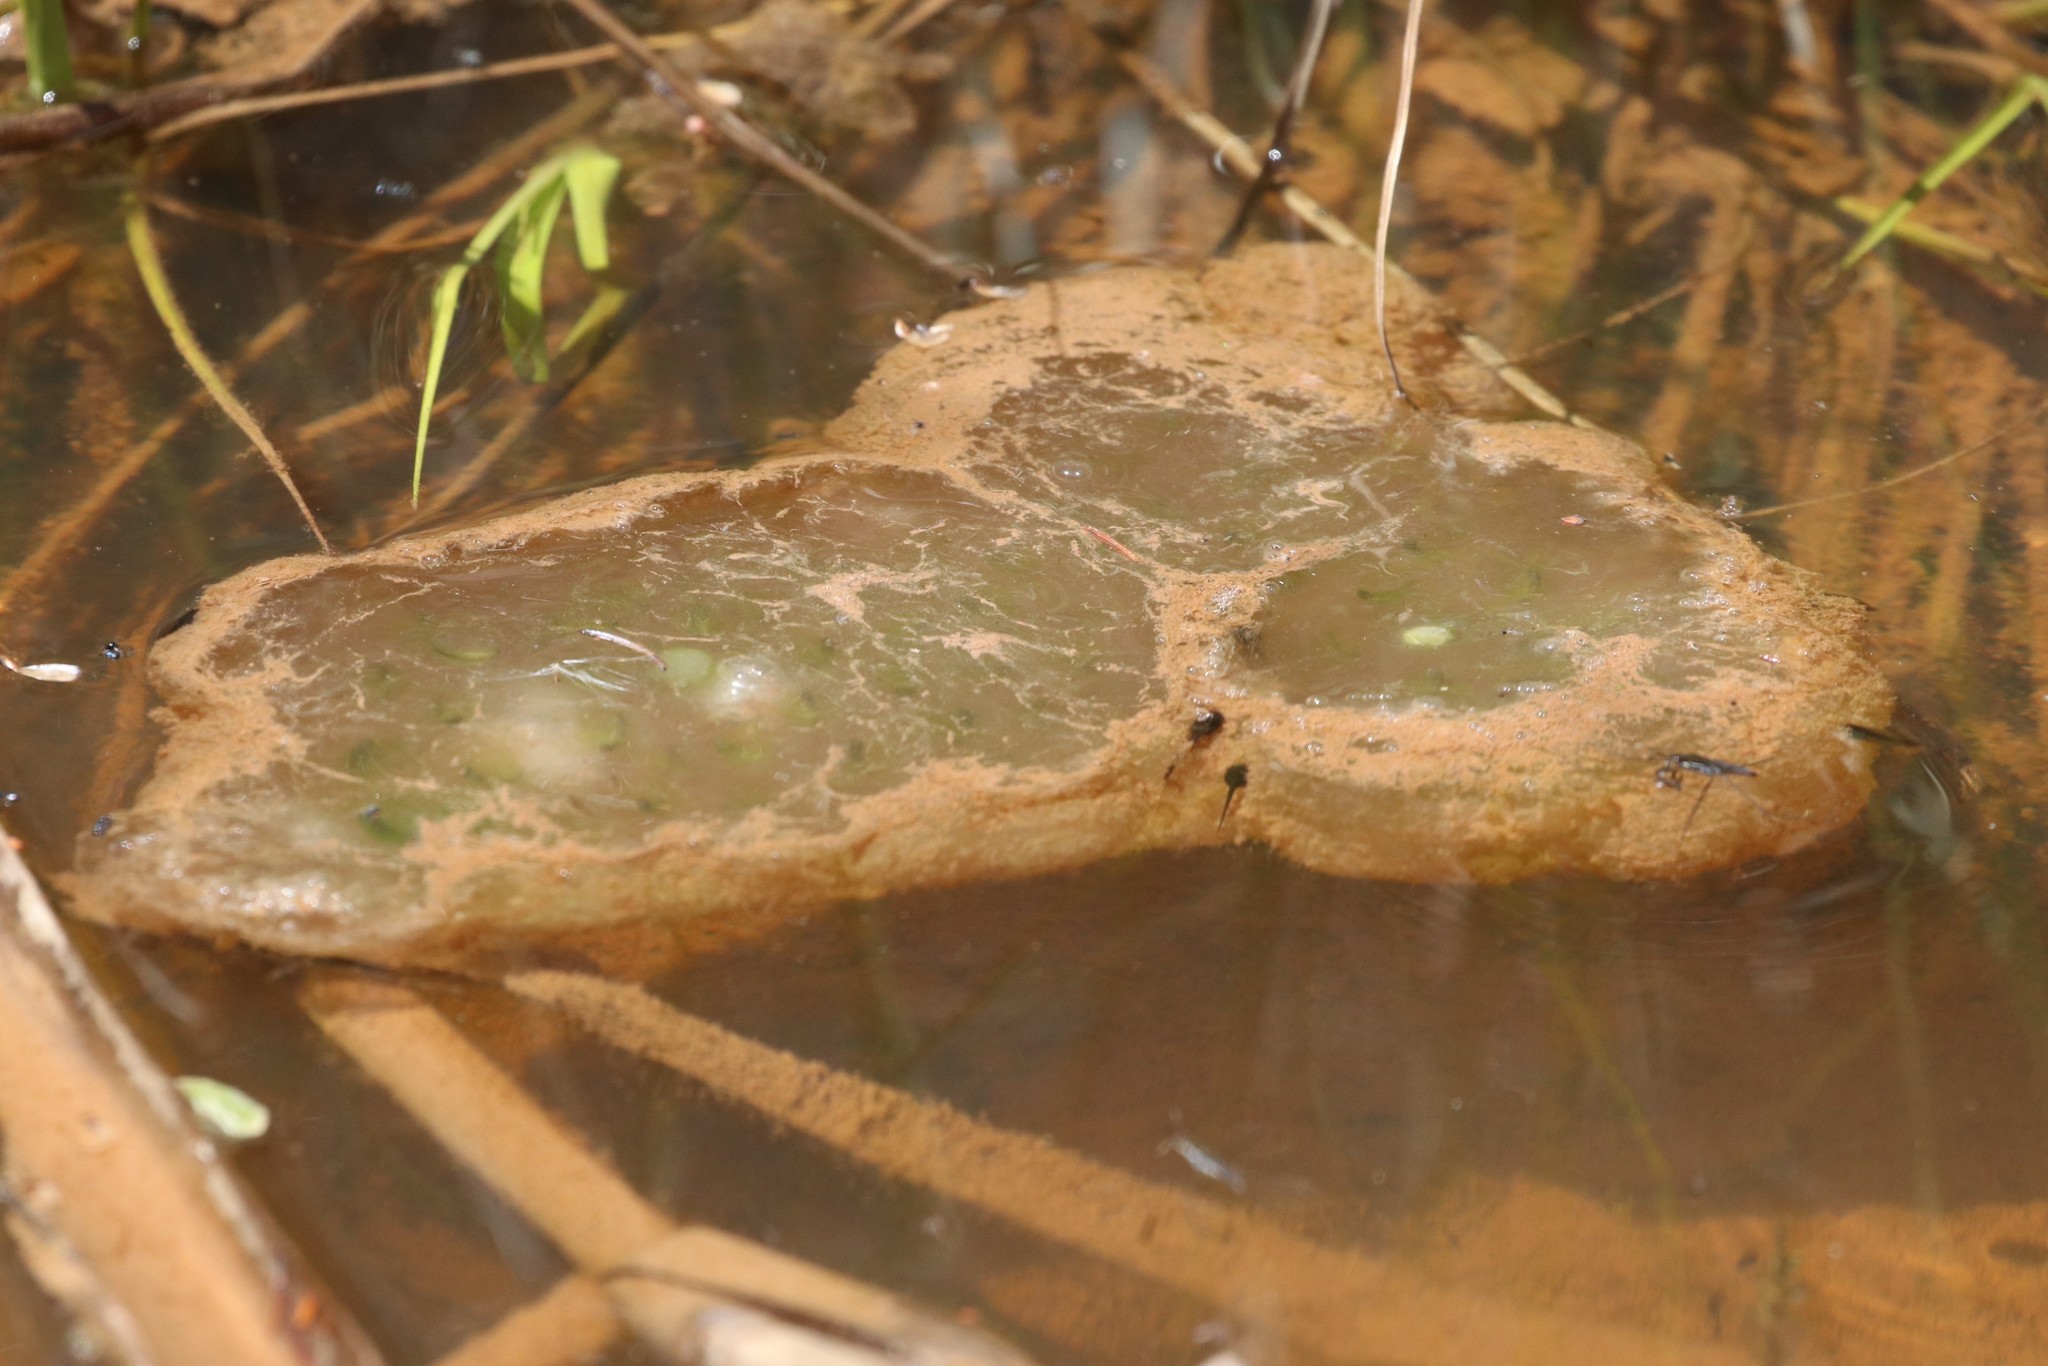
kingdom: Animalia
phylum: Chordata
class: Amphibia
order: Caudata
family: Ambystomatidae
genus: Ambystoma
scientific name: Ambystoma maculatum
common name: Spotted salamander
